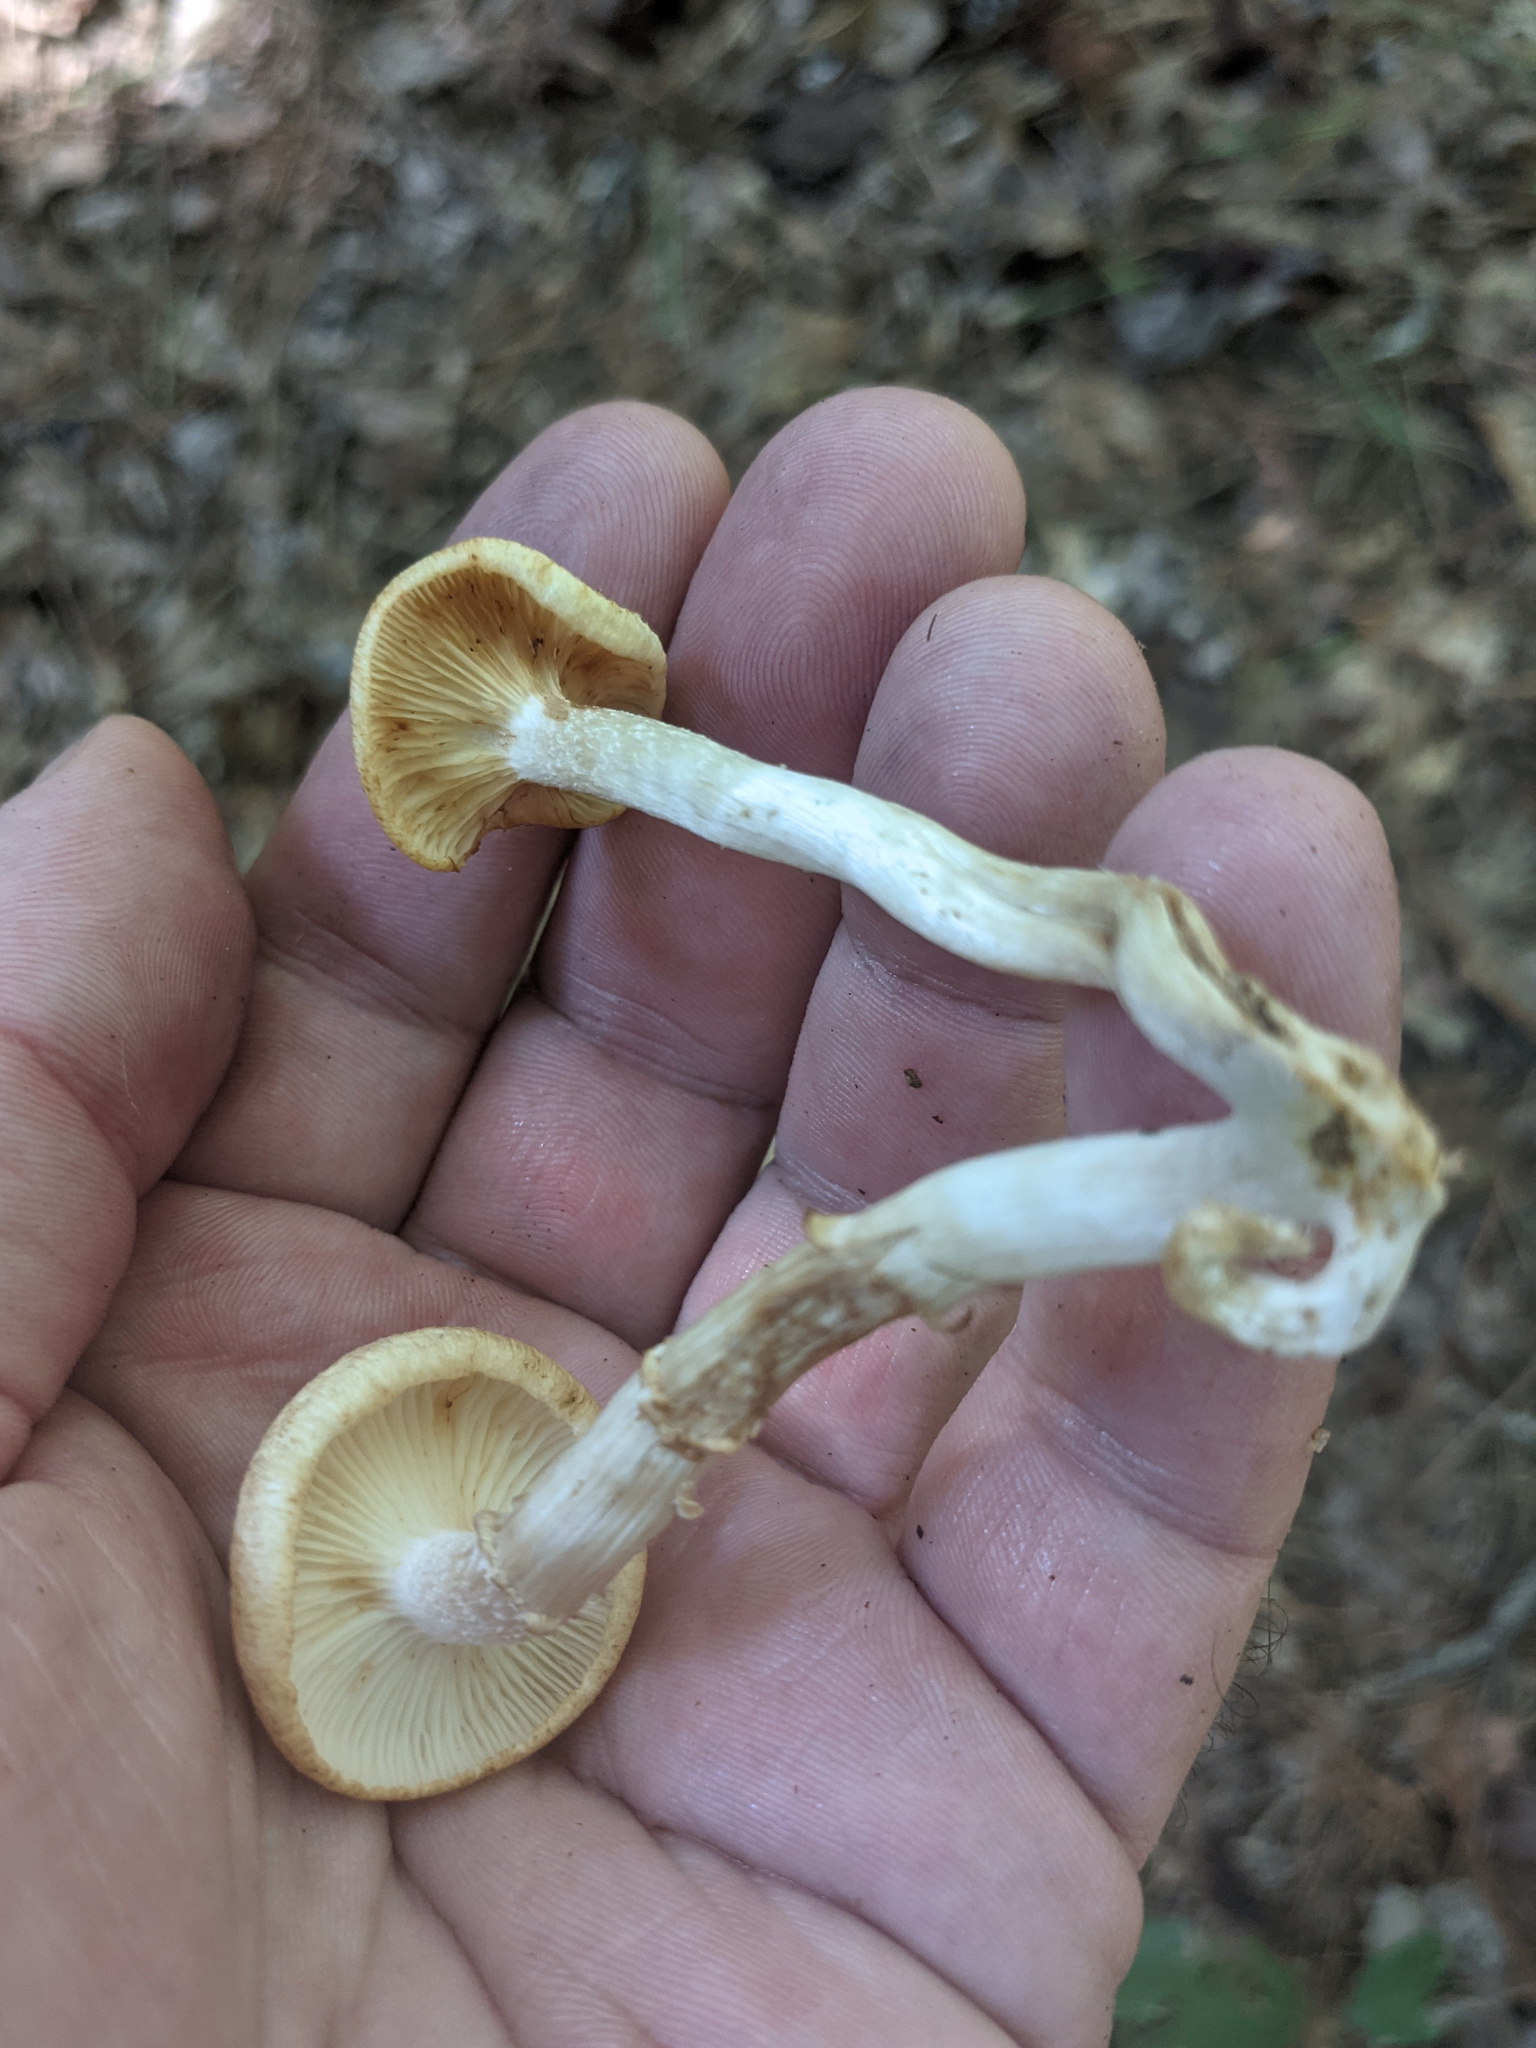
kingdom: Fungi
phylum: Basidiomycota
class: Agaricomycetes
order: Agaricales
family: Physalacriaceae
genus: Desarmillaria
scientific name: Desarmillaria caespitosa
